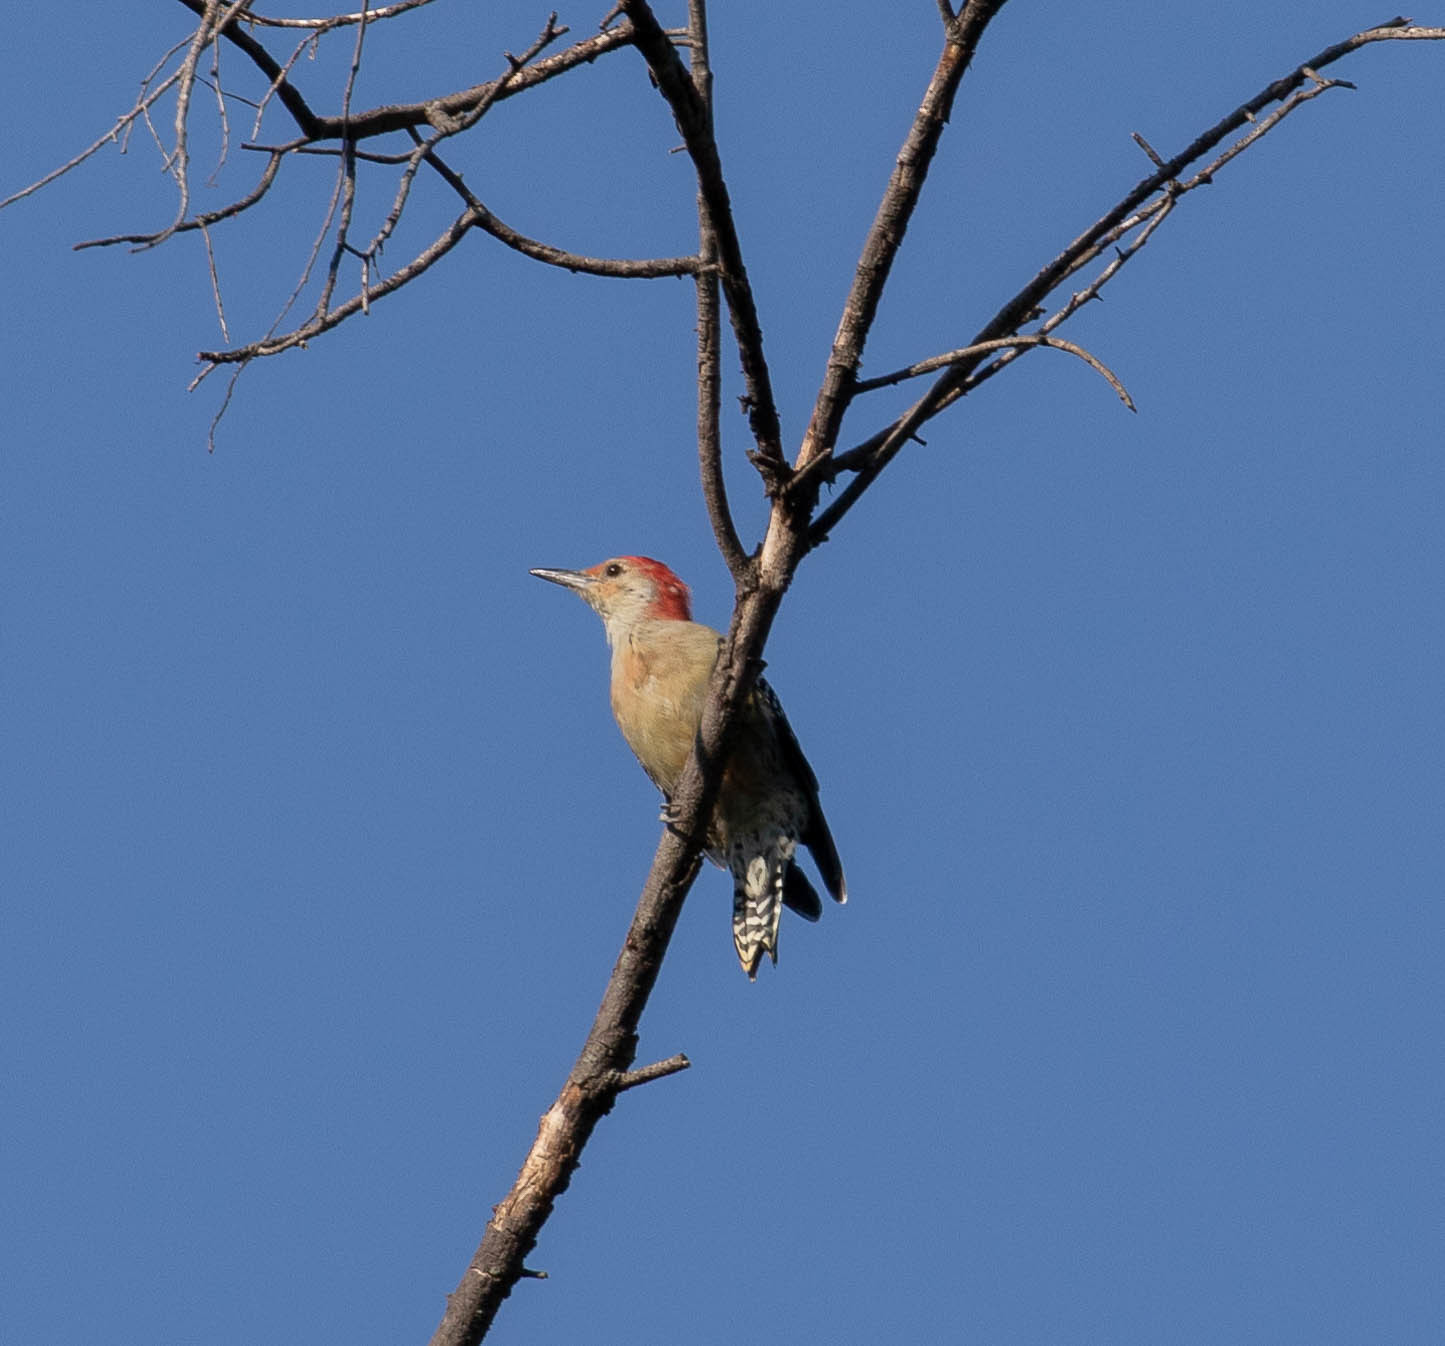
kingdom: Animalia
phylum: Chordata
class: Aves
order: Piciformes
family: Picidae
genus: Melanerpes
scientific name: Melanerpes carolinus
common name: Red-bellied woodpecker
